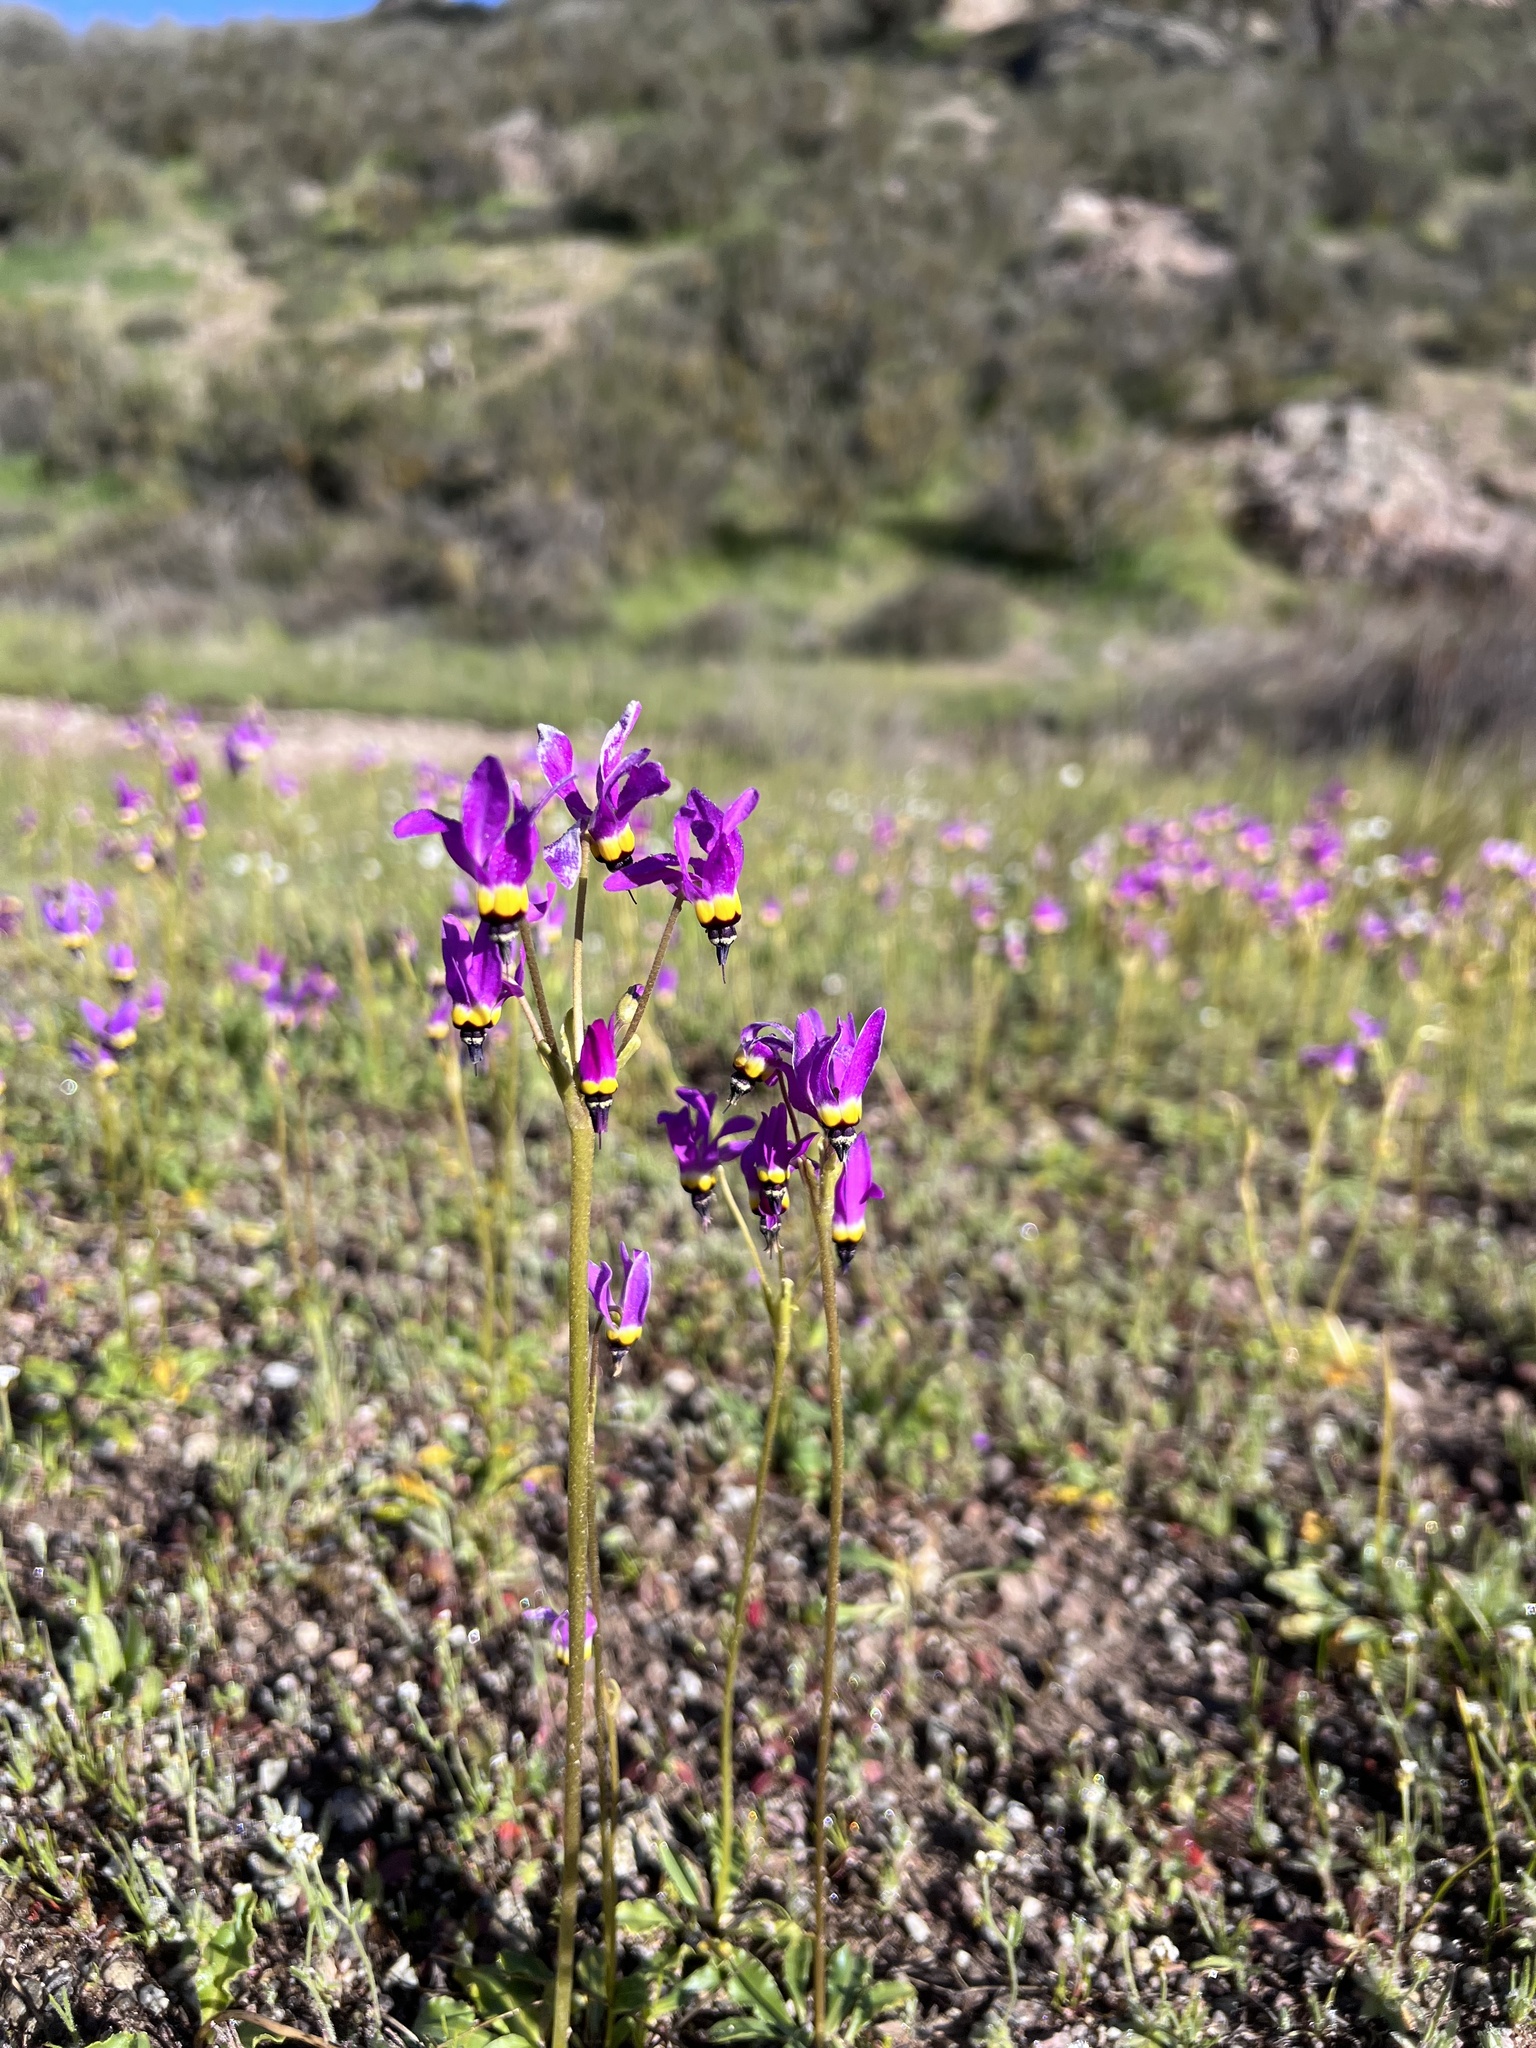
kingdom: Plantae
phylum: Tracheophyta
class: Magnoliopsida
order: Ericales
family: Primulaceae
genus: Dodecatheon
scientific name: Dodecatheon clevelandii
